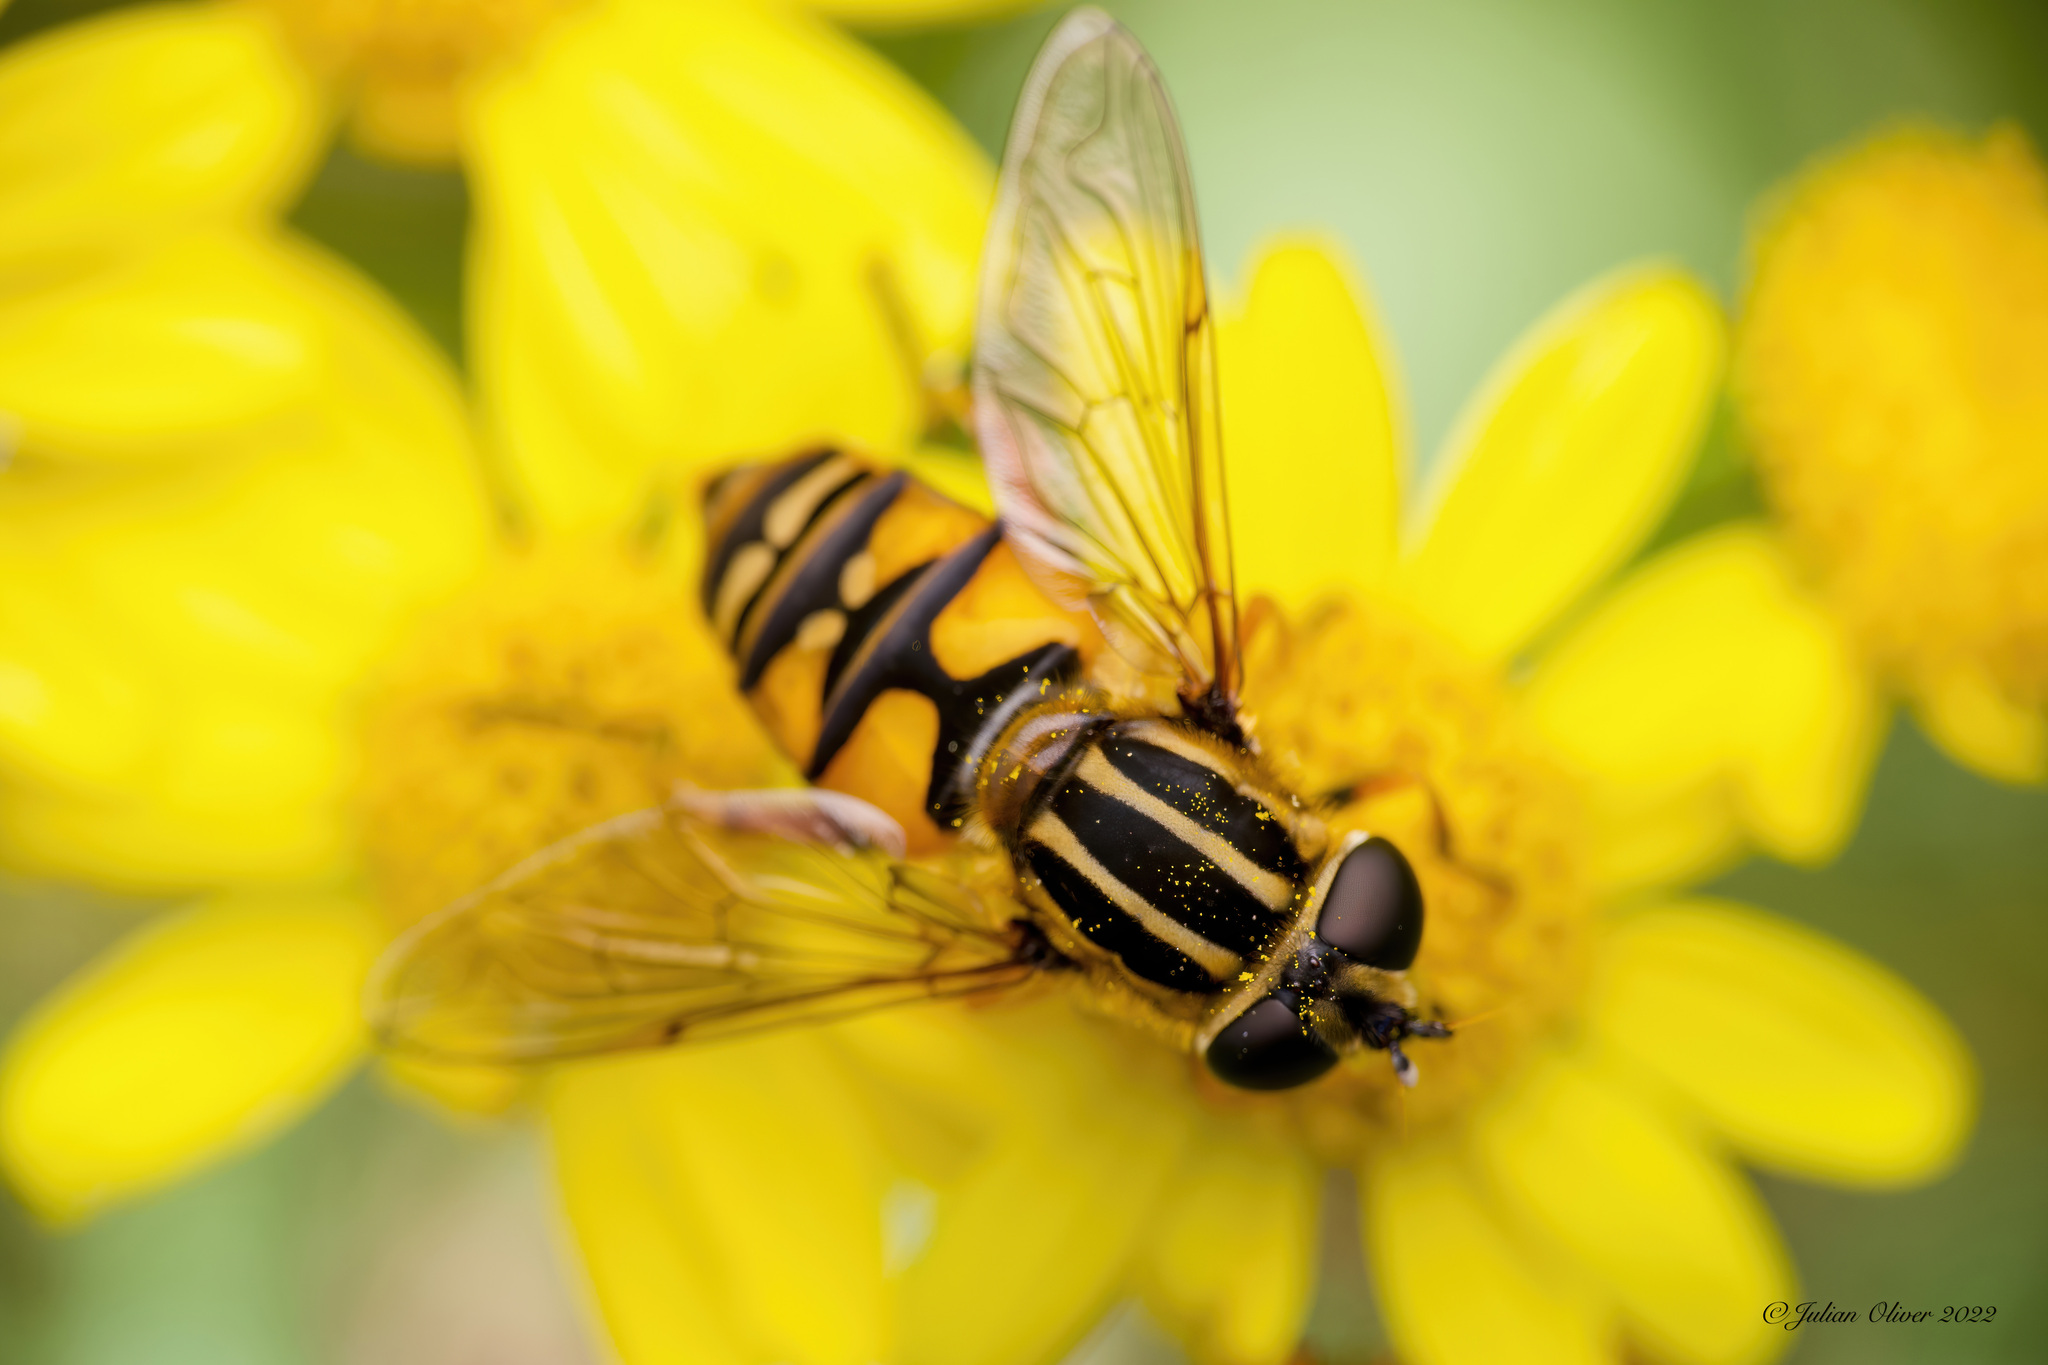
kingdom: Animalia
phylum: Arthropoda
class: Insecta
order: Diptera
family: Syrphidae
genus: Helophilus
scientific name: Helophilus pendulus
